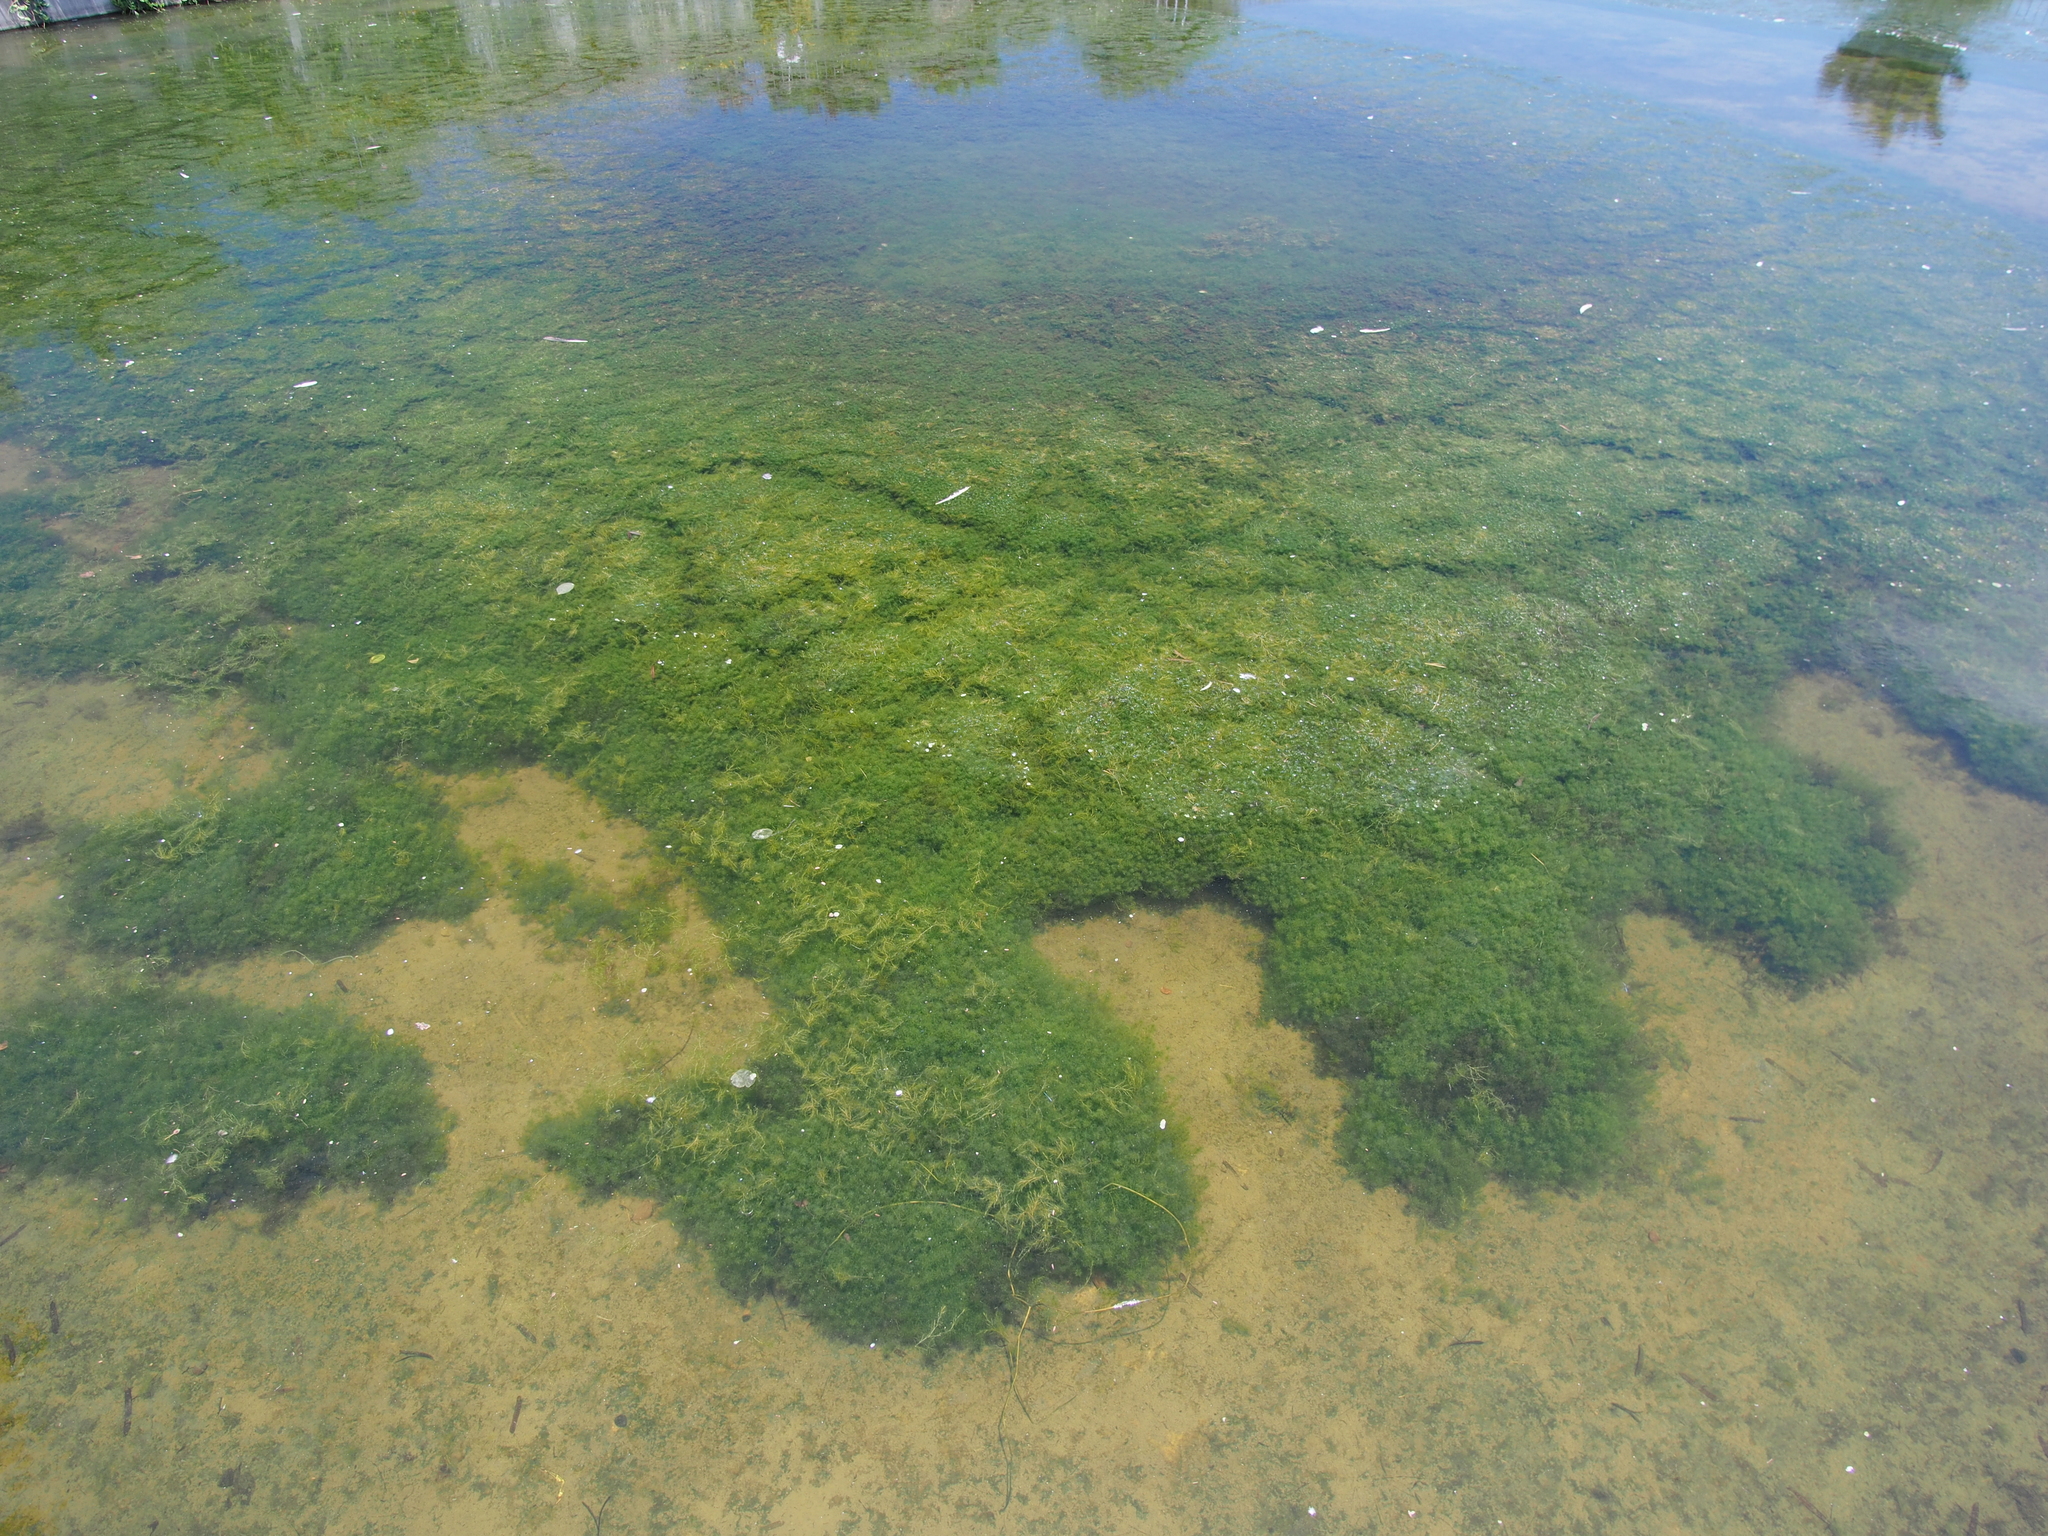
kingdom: Plantae
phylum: Tracheophyta
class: Liliopsida
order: Alismatales
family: Hydrocharitaceae
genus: Najas
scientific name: Najas browniana
